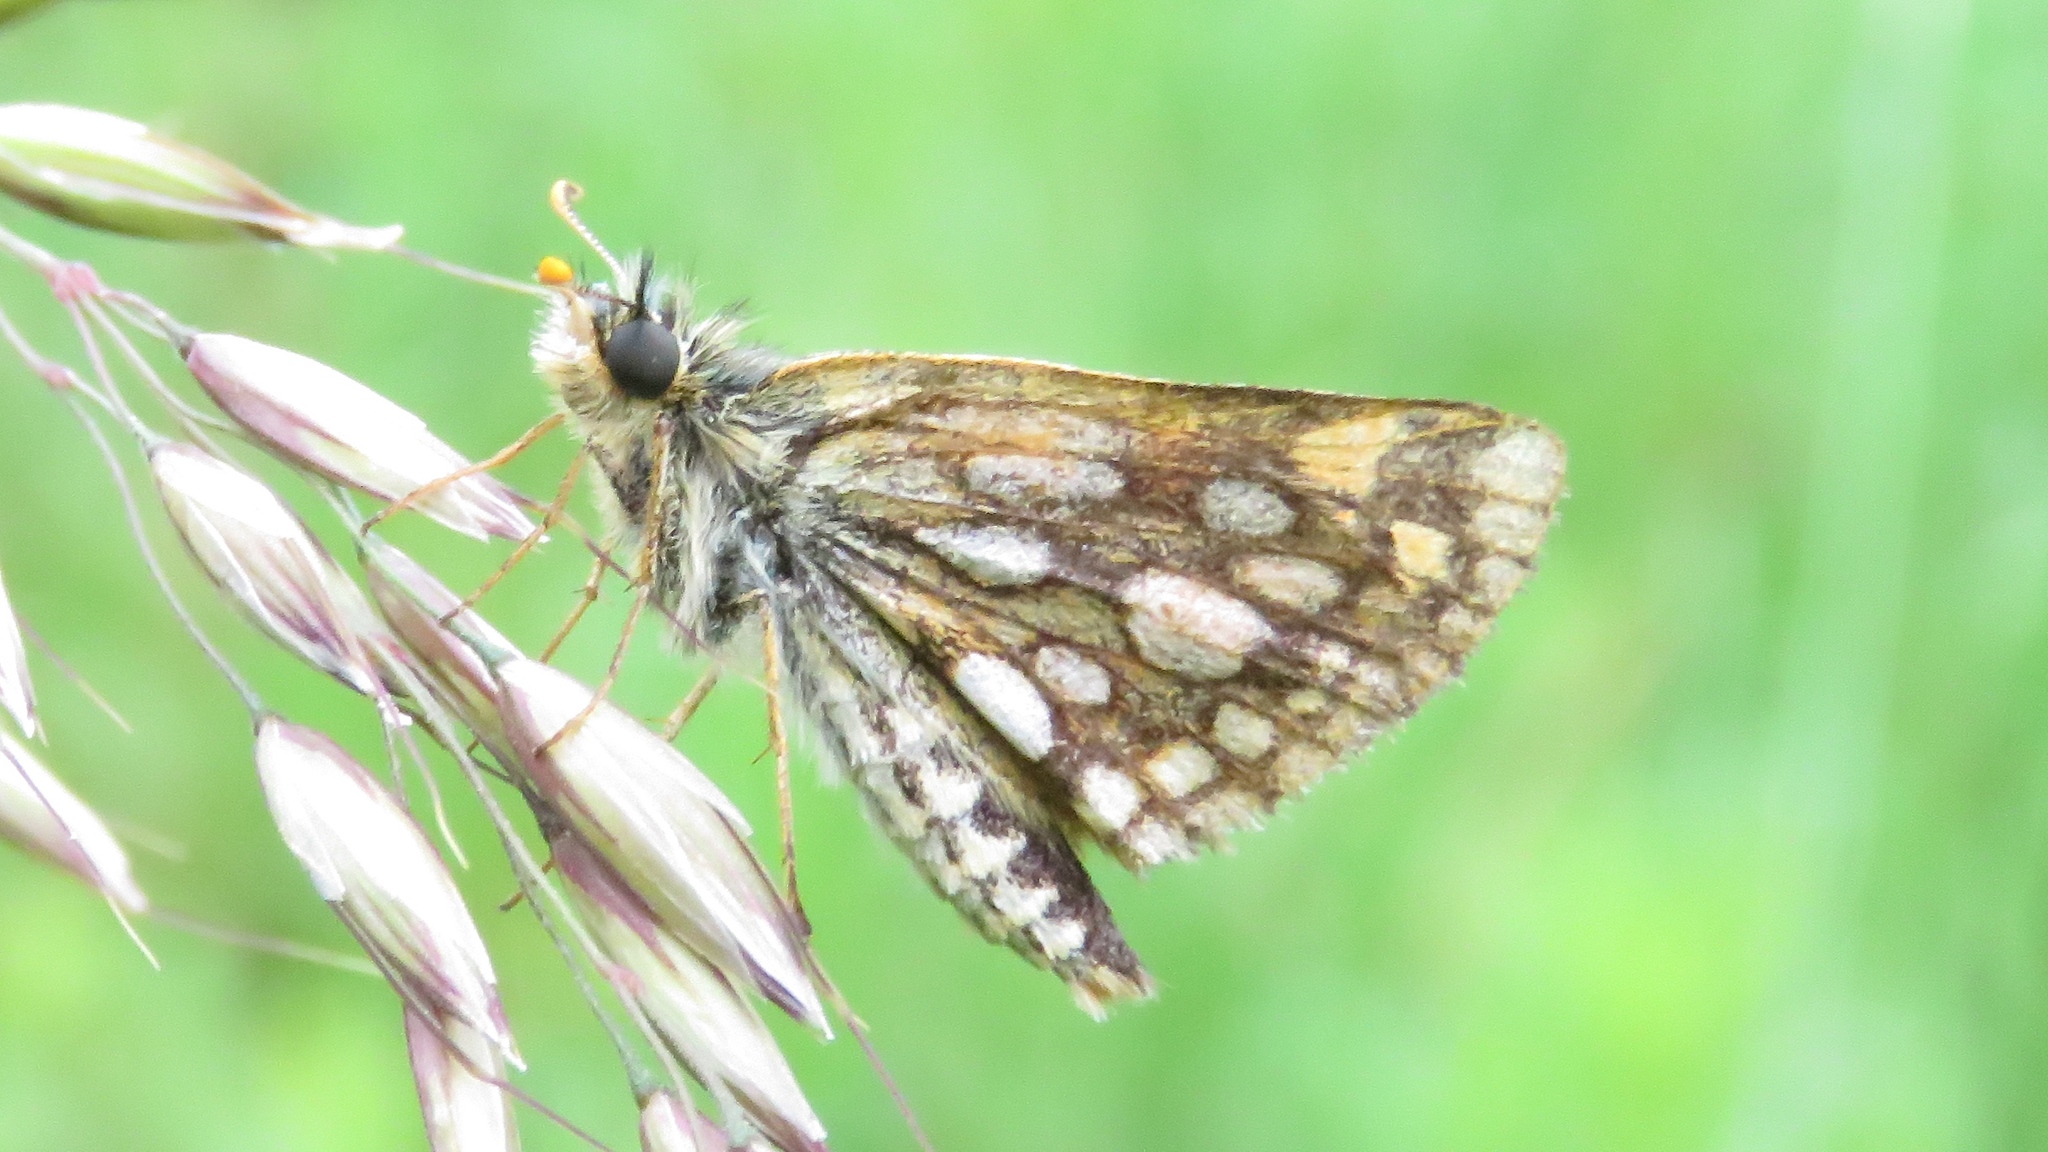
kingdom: Animalia
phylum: Arthropoda
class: Insecta
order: Lepidoptera
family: Hesperiidae
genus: Carterocephalus
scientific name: Carterocephalus mandan
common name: Arctic skipperling
